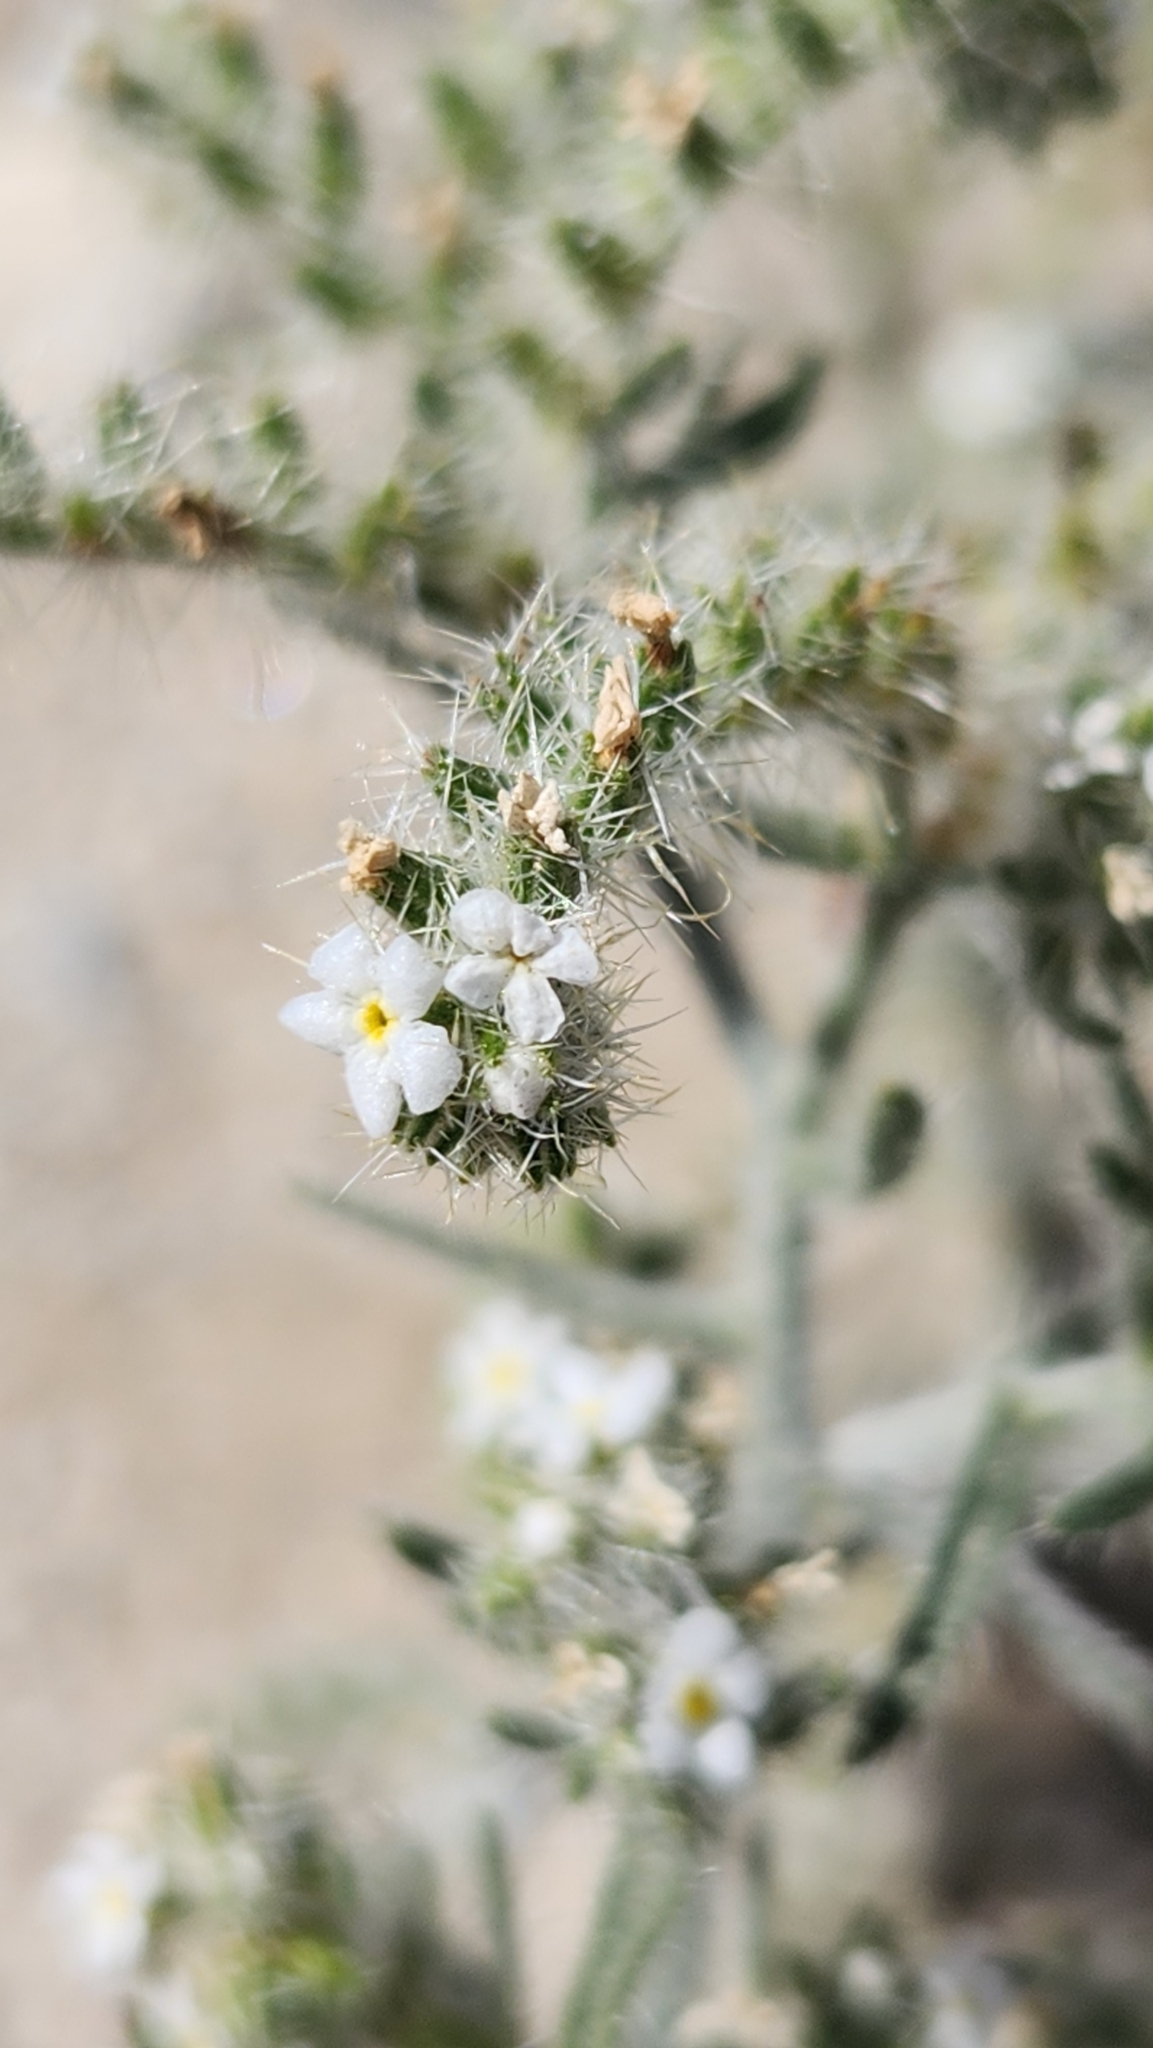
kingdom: Plantae
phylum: Tracheophyta
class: Magnoliopsida
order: Boraginales
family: Boraginaceae
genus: Johnstonella
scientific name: Johnstonella angustifolia
